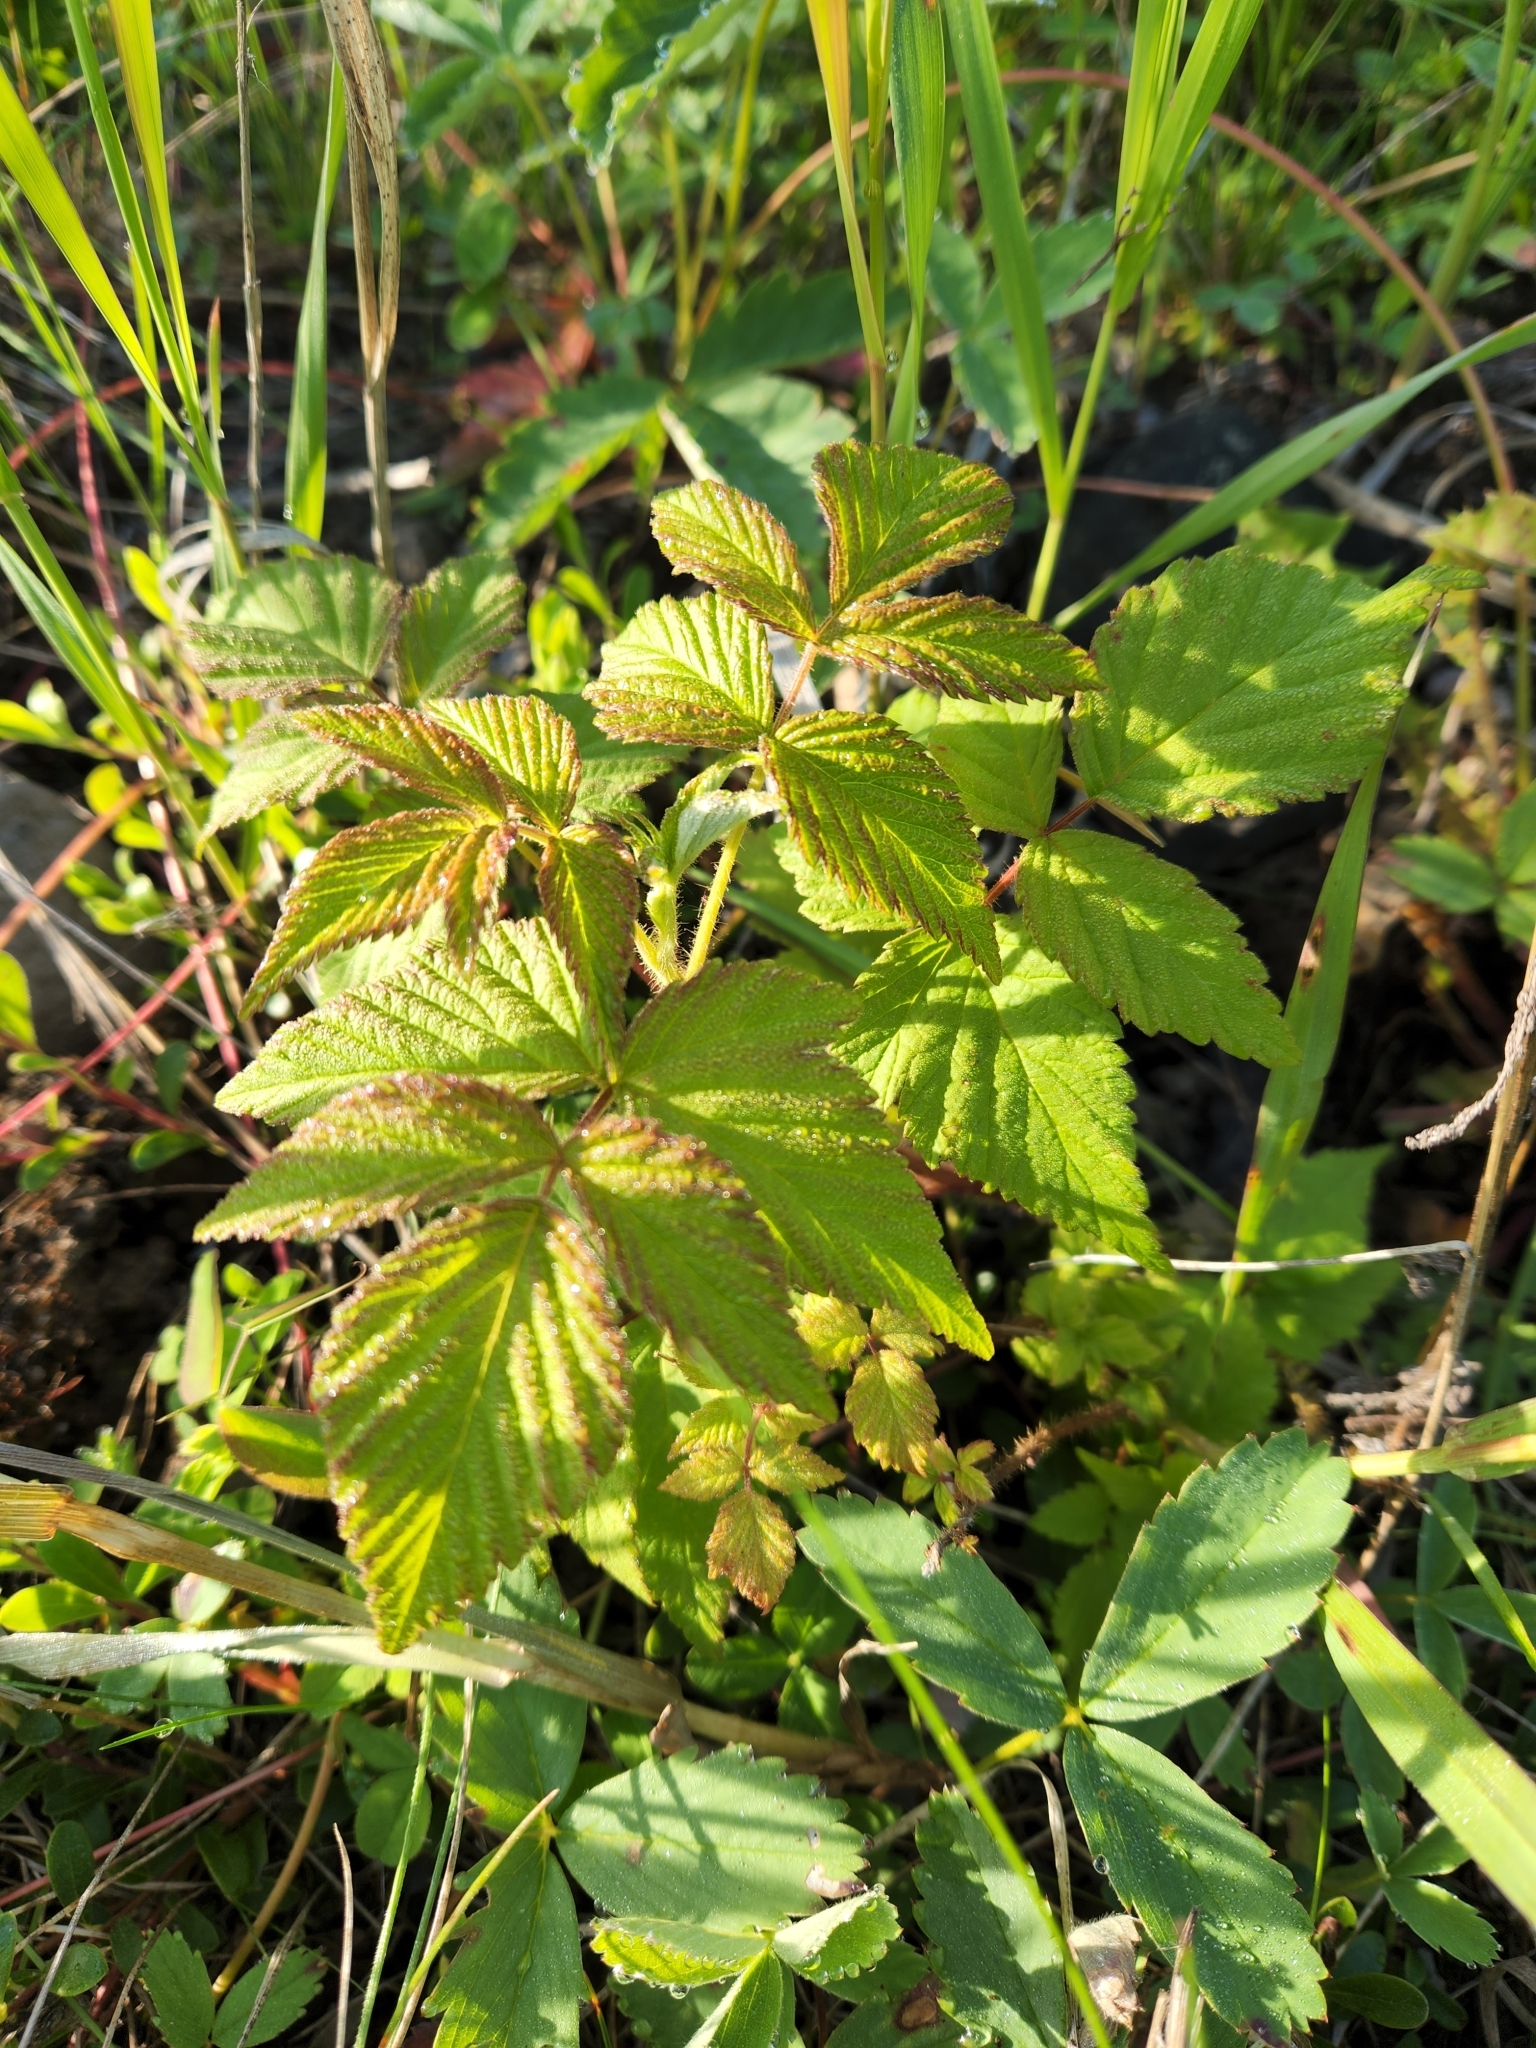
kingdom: Plantae
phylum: Tracheophyta
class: Magnoliopsida
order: Rosales
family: Rosaceae
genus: Rubus
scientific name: Rubus idaeus
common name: Raspberry
